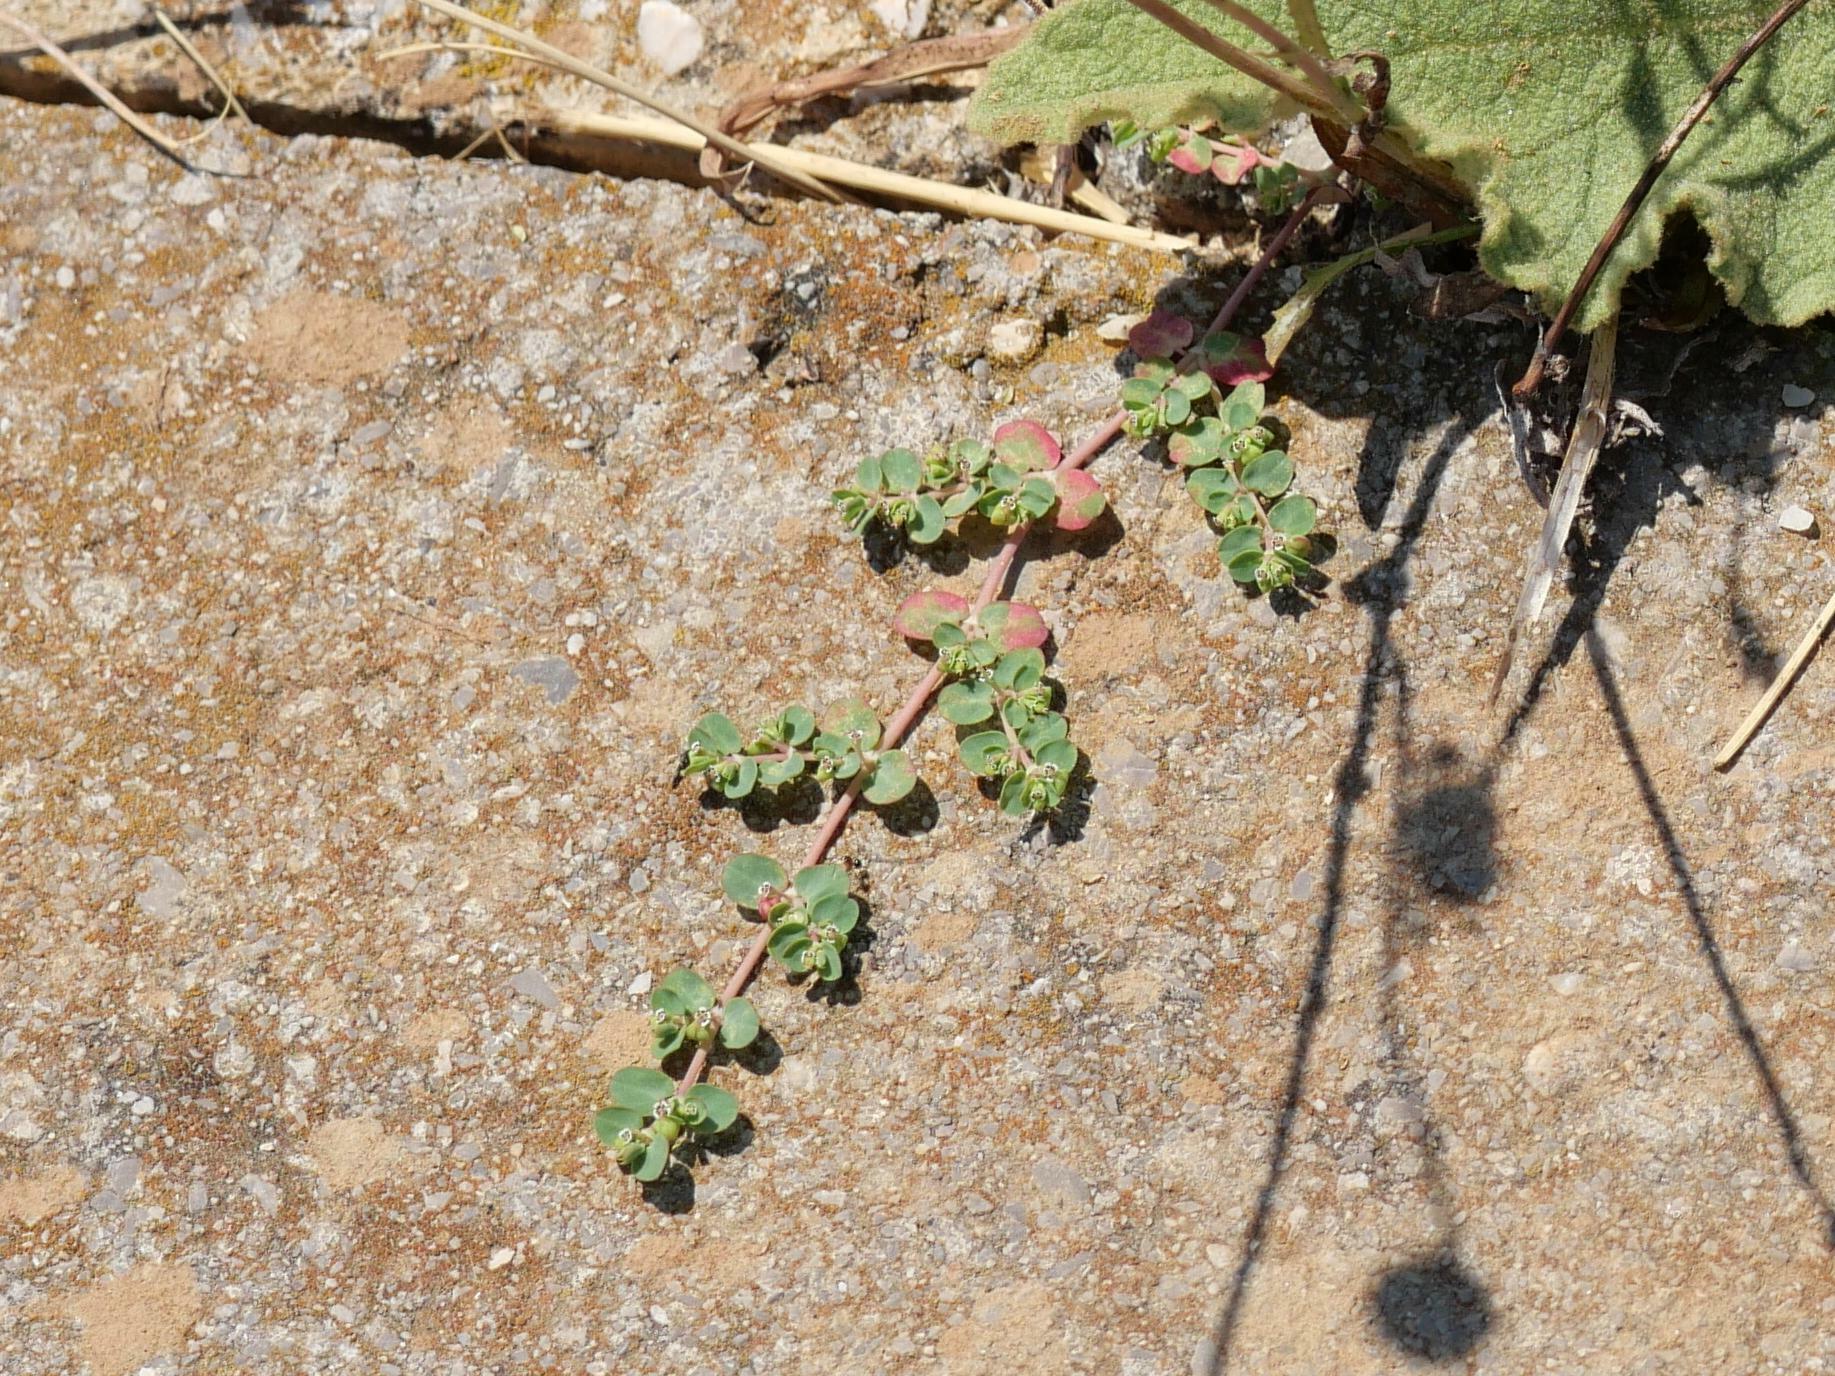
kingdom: Plantae
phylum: Tracheophyta
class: Magnoliopsida
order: Malpighiales
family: Euphorbiaceae
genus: Euphorbia
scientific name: Euphorbia serpens
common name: Matted sandmat
